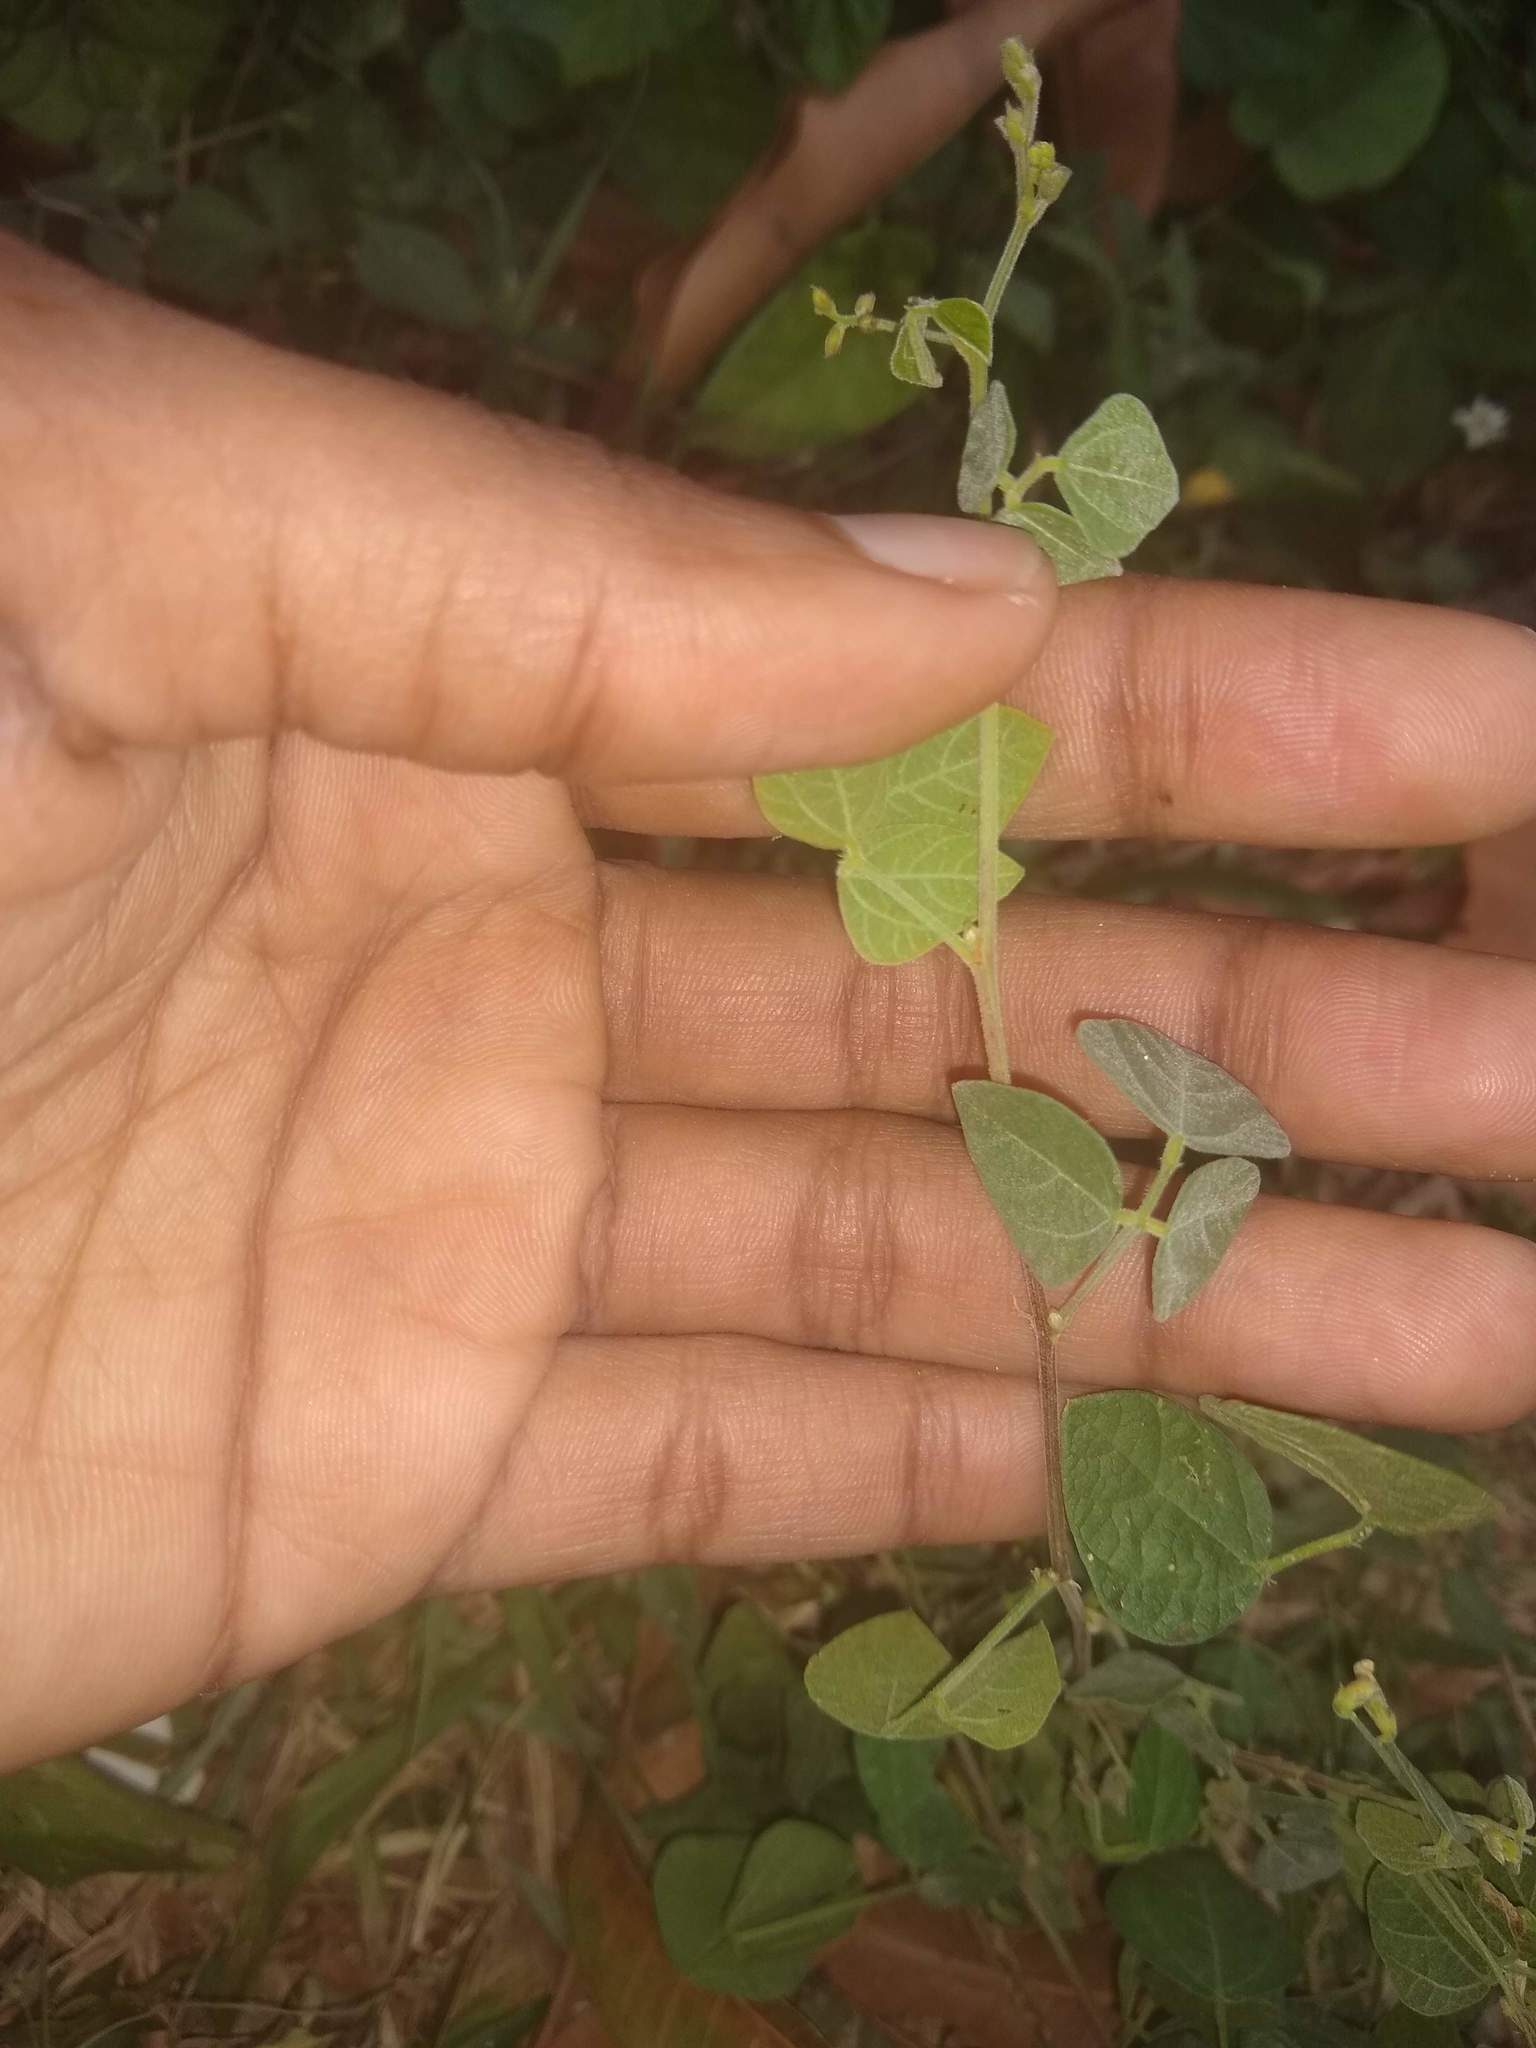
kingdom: Plantae
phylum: Tracheophyta
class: Magnoliopsida
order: Fabales
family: Fabaceae
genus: Macroptilium
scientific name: Macroptilium atropurpureum
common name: Purple bushbean
